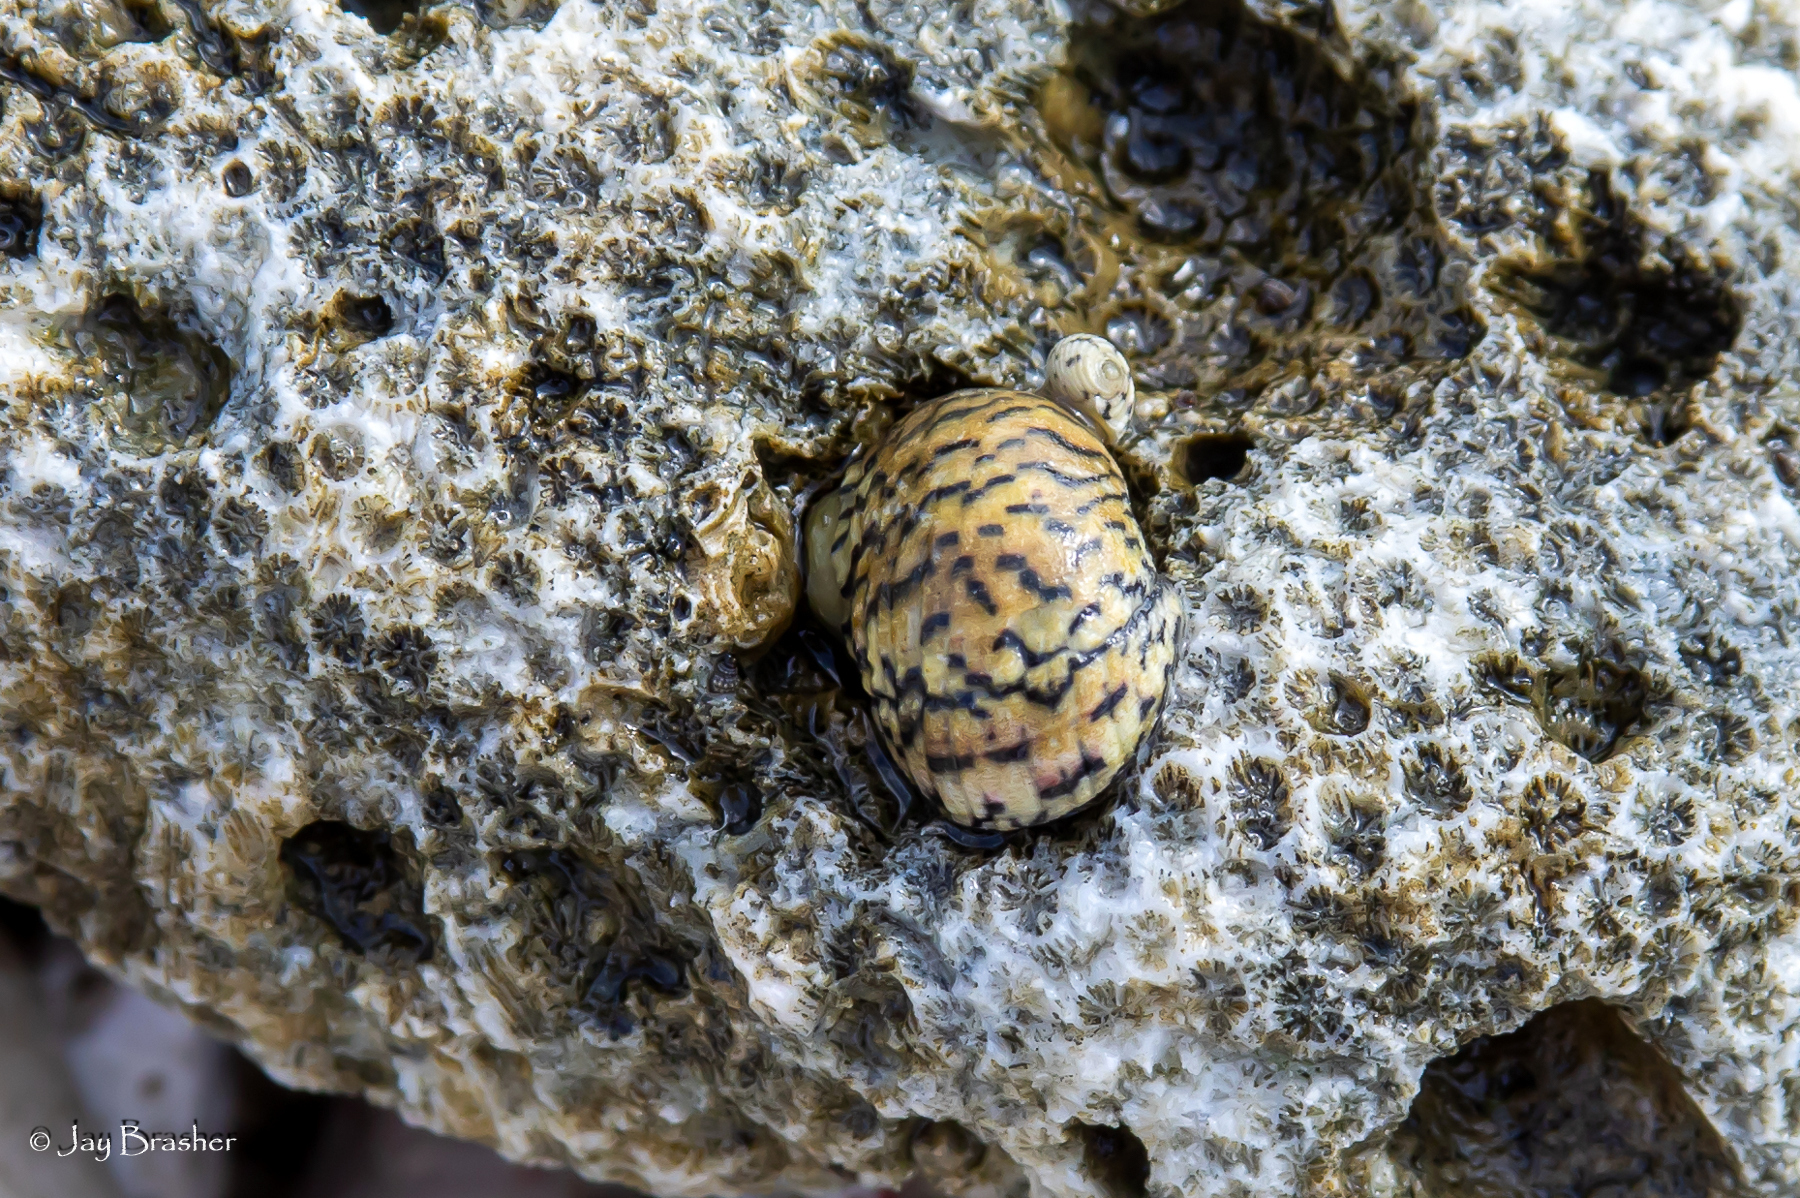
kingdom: Animalia
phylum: Mollusca
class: Gastropoda
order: Cycloneritida
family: Neritidae
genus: Nerita
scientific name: Nerita peloronta
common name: Bleeding tooth
